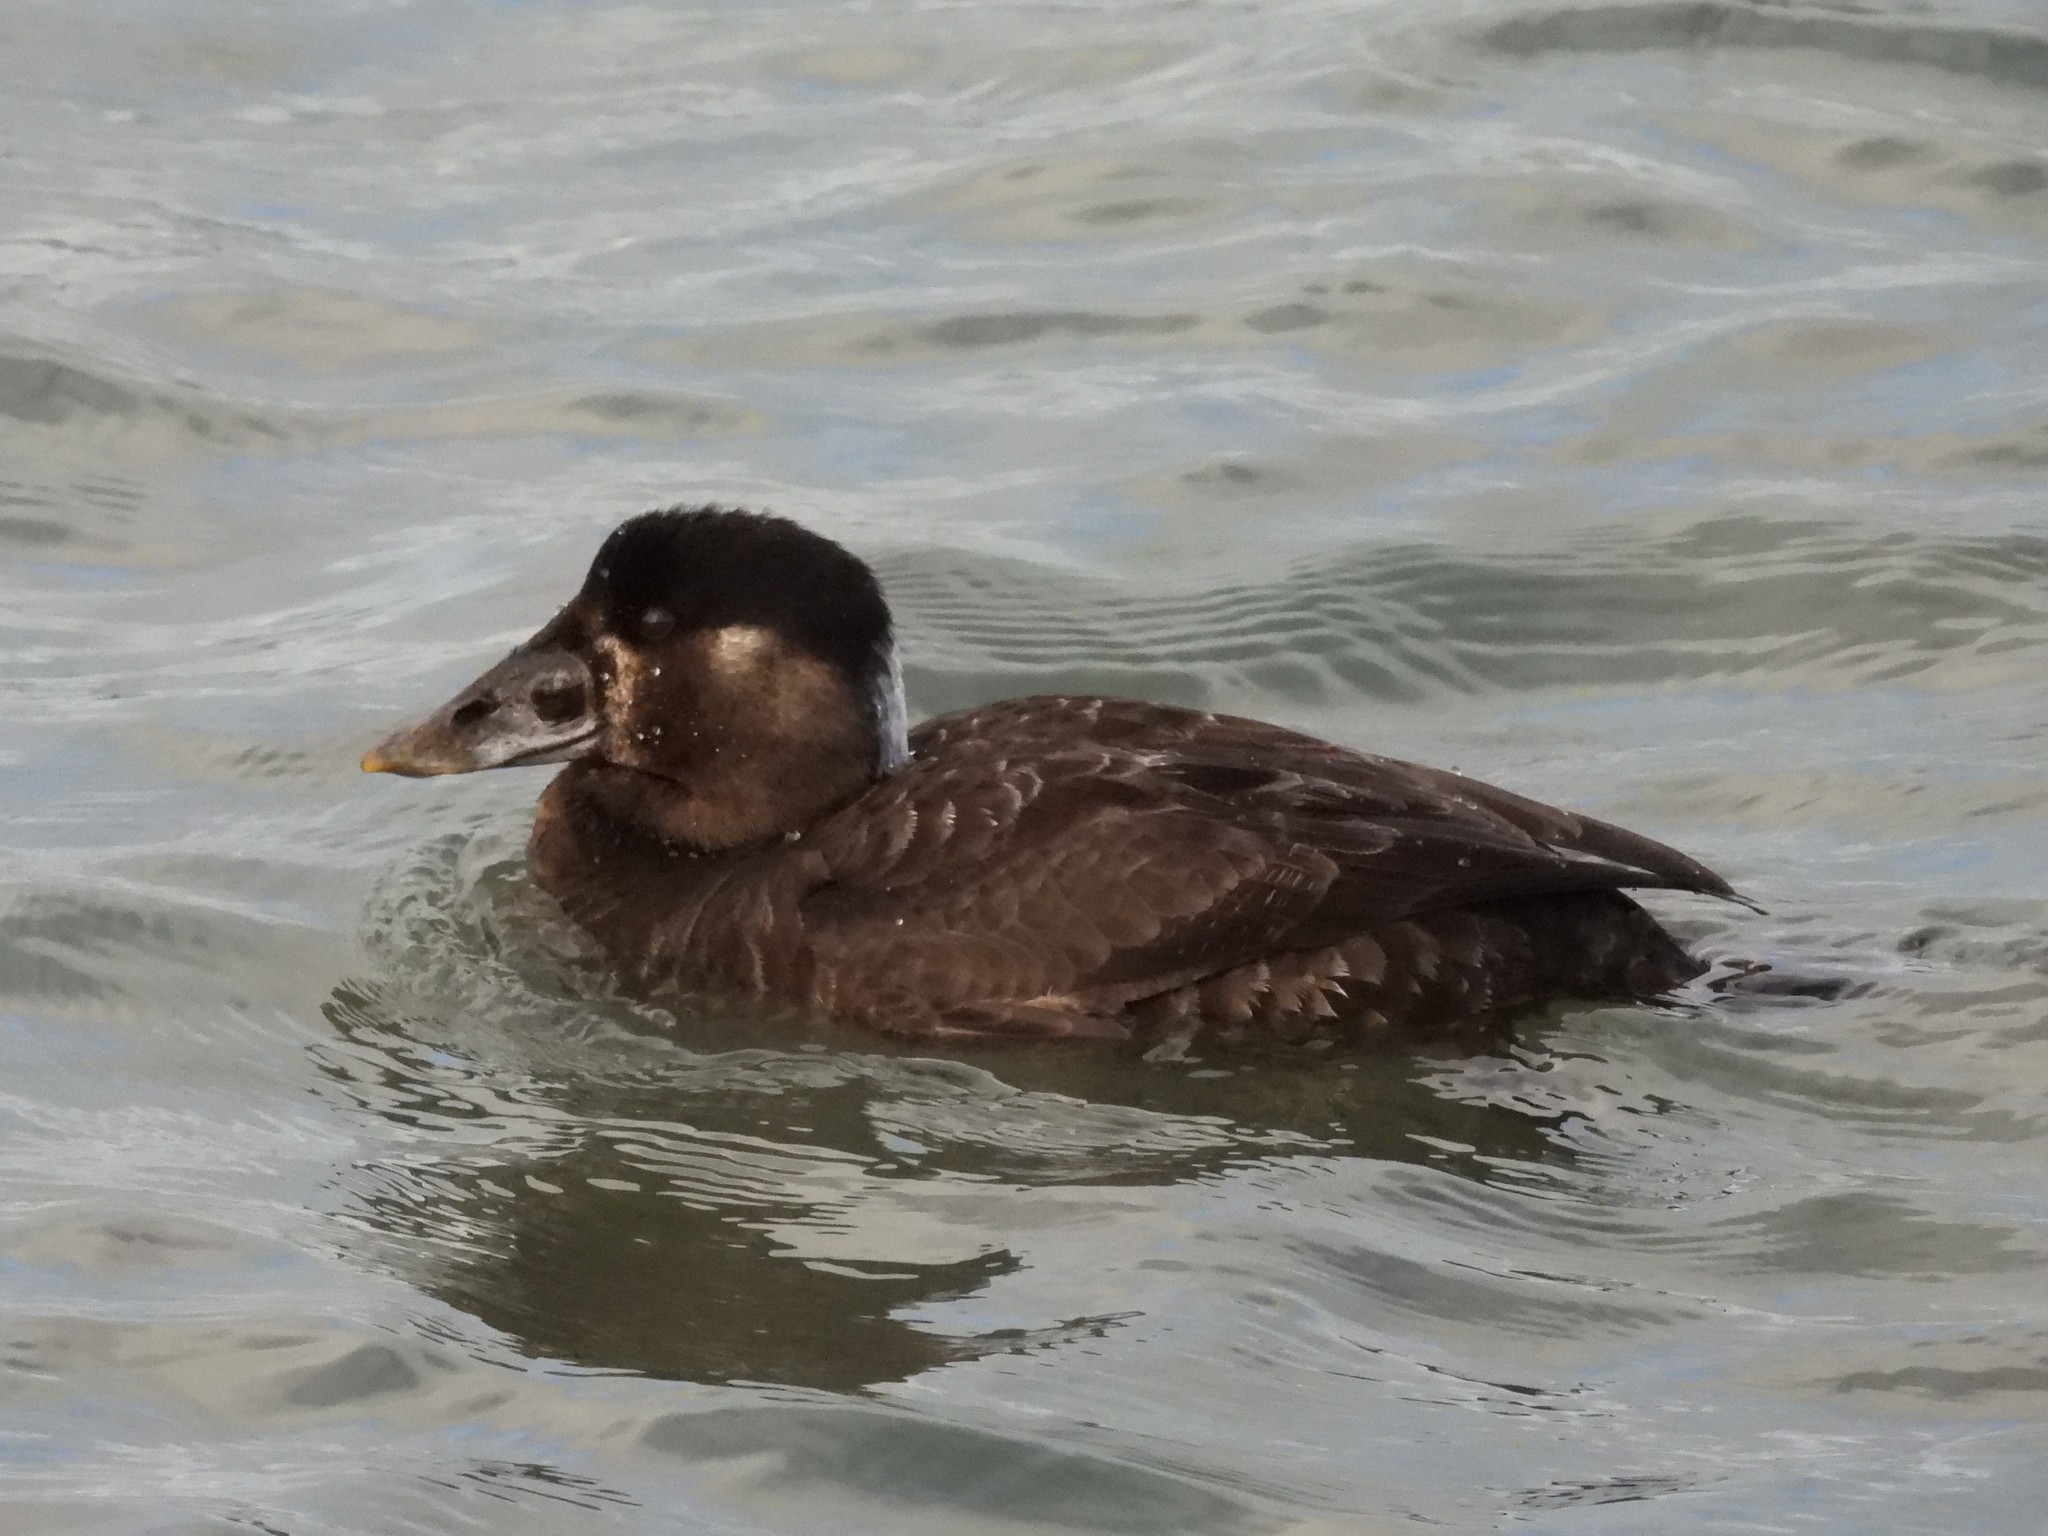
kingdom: Animalia
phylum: Chordata
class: Aves
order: Anseriformes
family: Anatidae
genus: Melanitta
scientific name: Melanitta perspicillata
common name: Surf scoter
